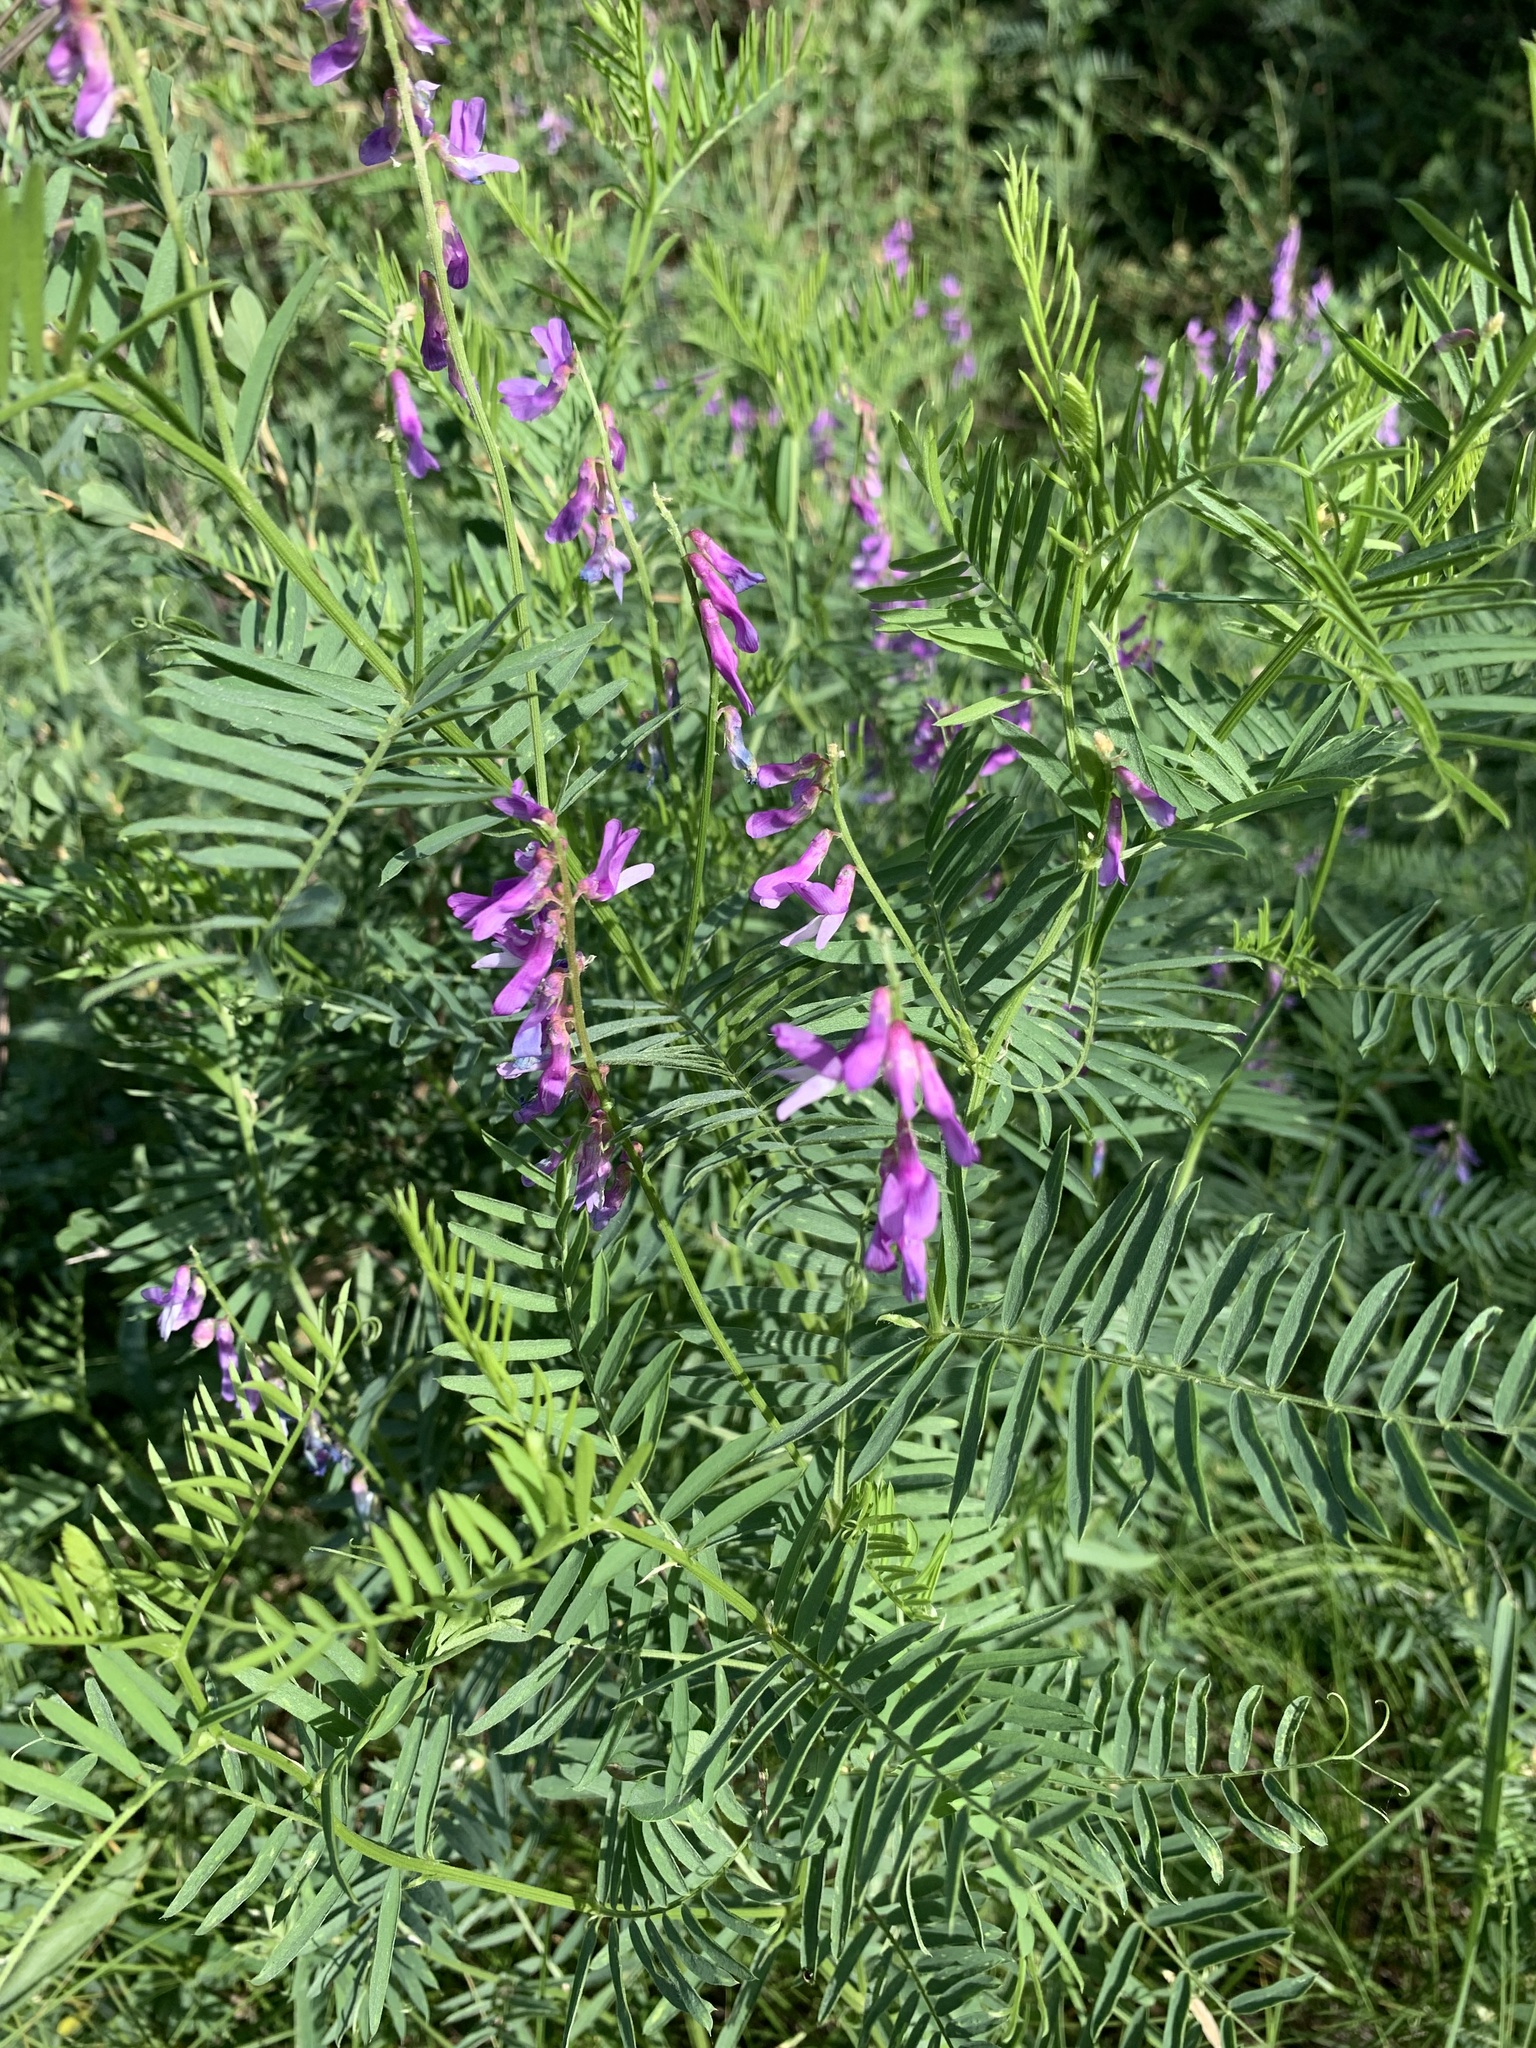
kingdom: Plantae
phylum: Tracheophyta
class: Magnoliopsida
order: Fabales
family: Fabaceae
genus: Vicia
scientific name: Vicia tenuifolia
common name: Fine-leaved vetch
